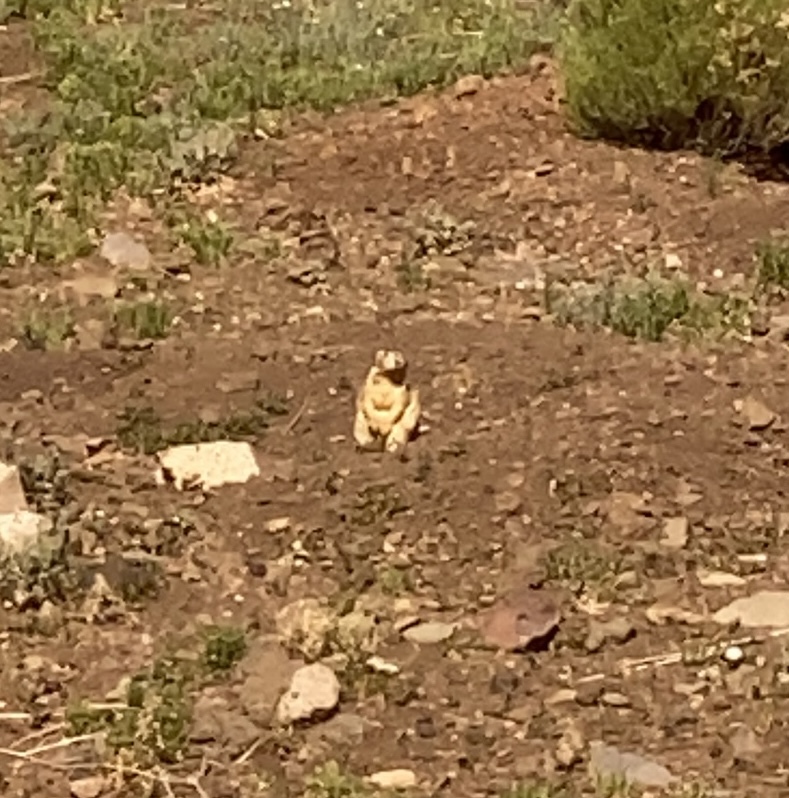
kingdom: Animalia
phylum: Chordata
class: Mammalia
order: Rodentia
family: Sciuridae
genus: Cynomys
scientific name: Cynomys gunnisoni
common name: Gunnison's prairie dog
